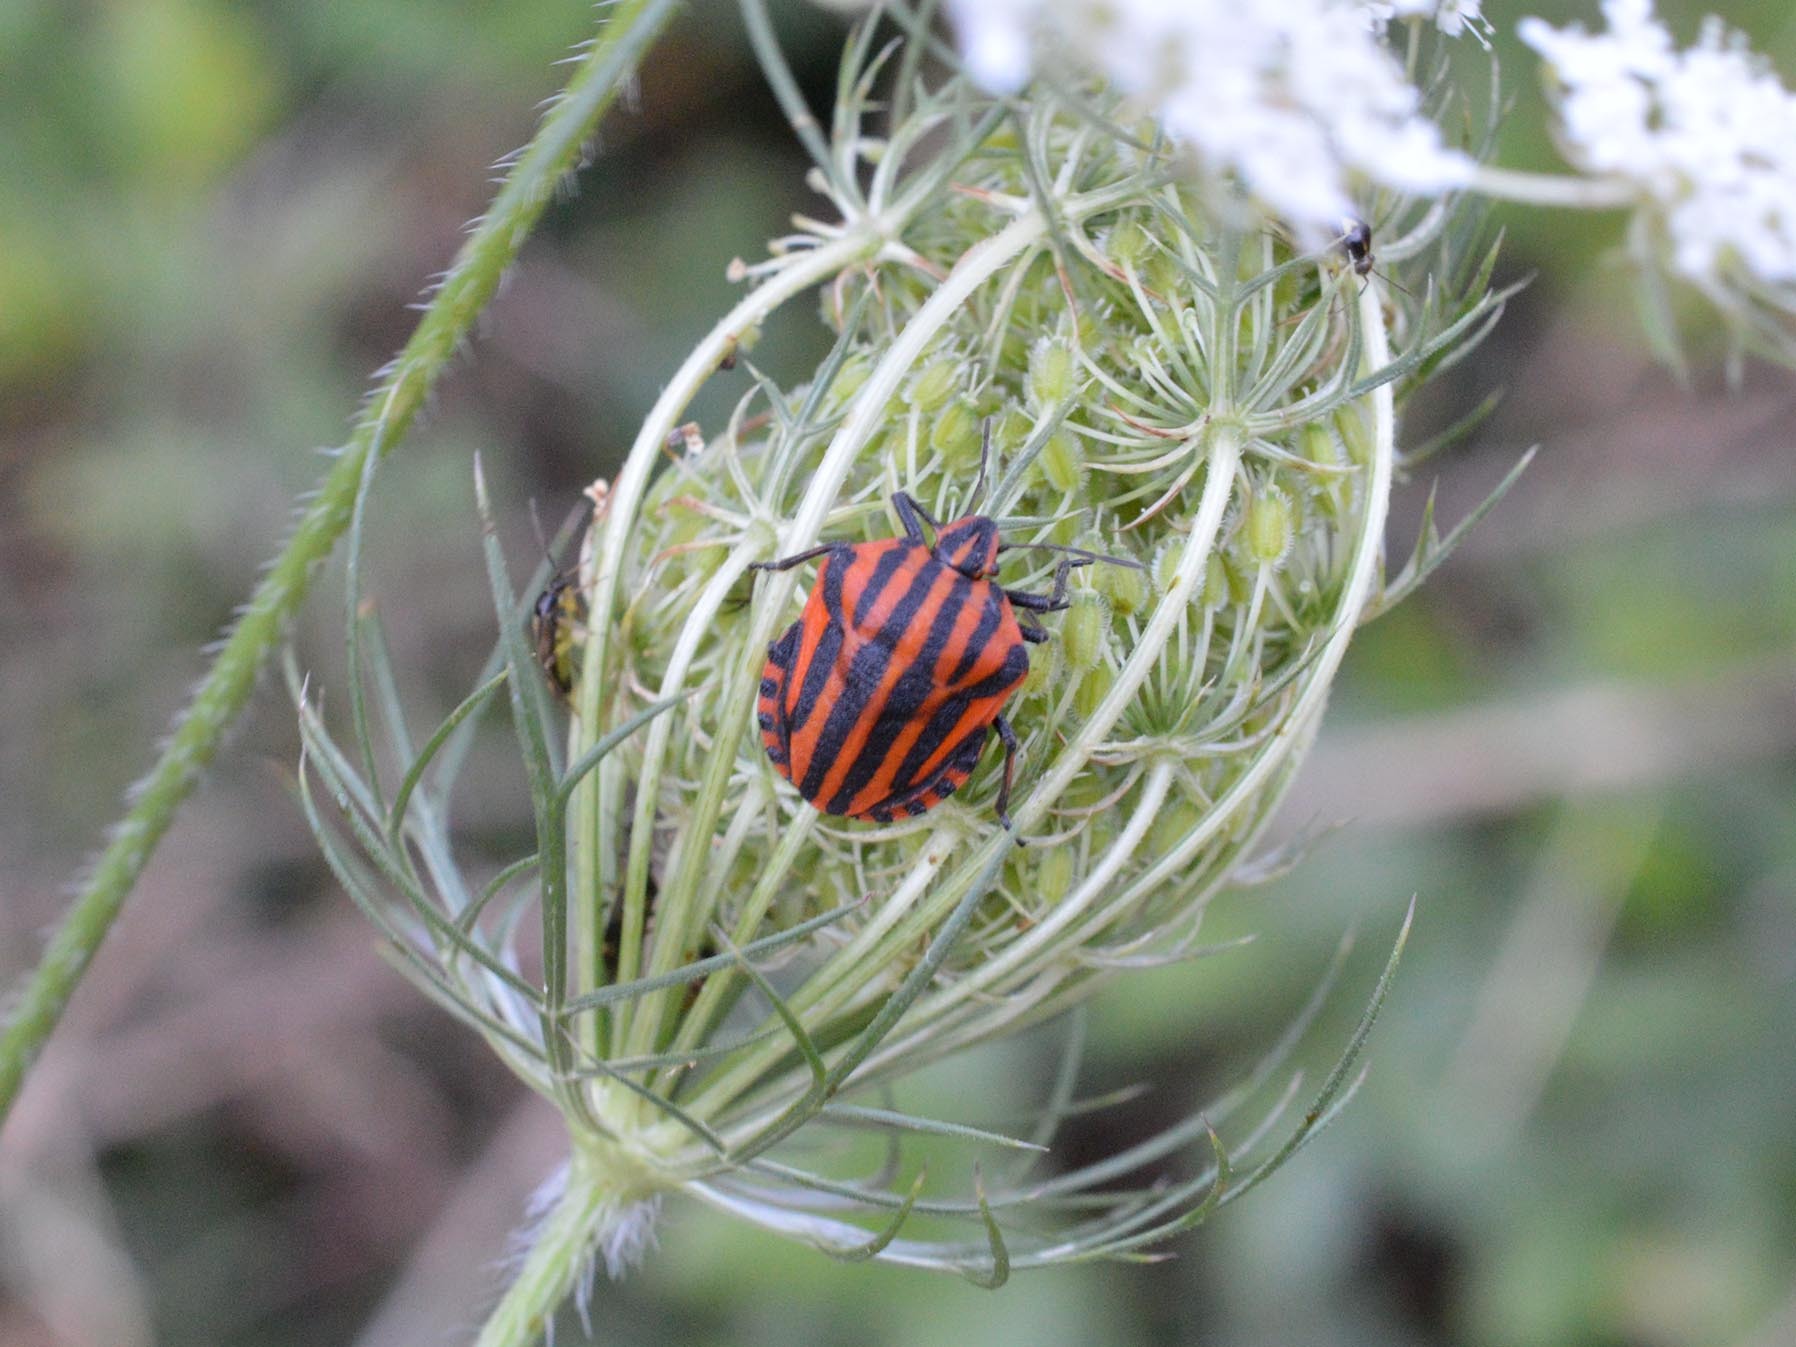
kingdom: Animalia
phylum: Arthropoda
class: Insecta
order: Hemiptera
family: Pentatomidae
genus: Graphosoma
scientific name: Graphosoma italicum
